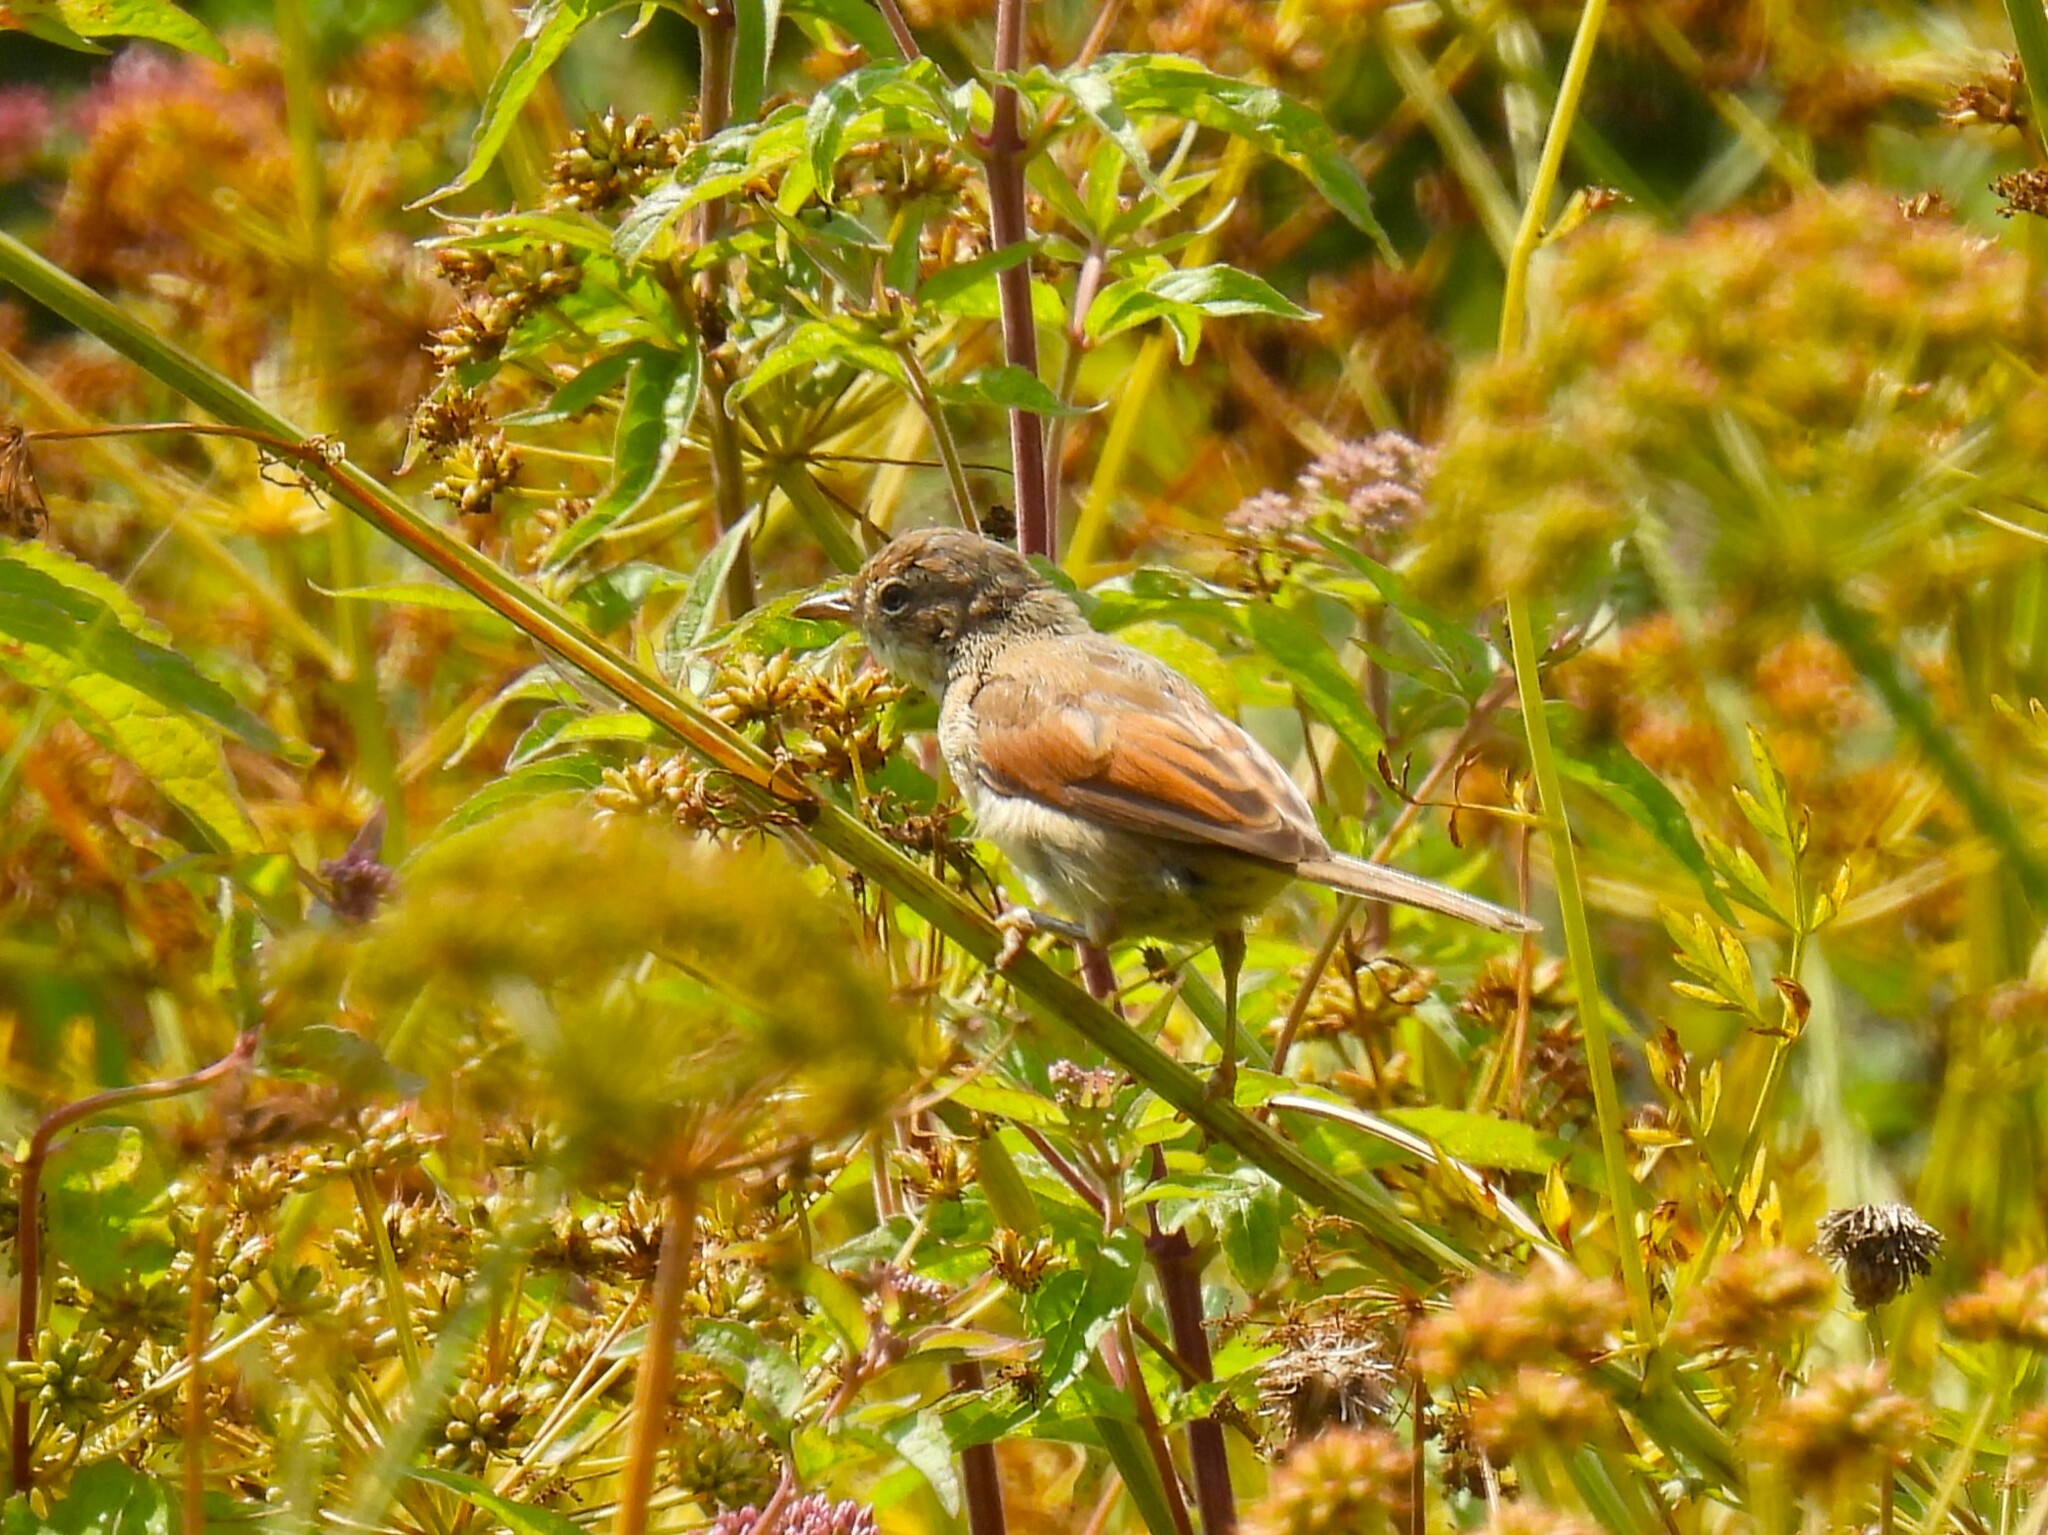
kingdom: Animalia
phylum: Chordata
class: Aves
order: Passeriformes
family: Sylviidae
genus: Sylvia
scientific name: Sylvia communis
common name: Common whitethroat
